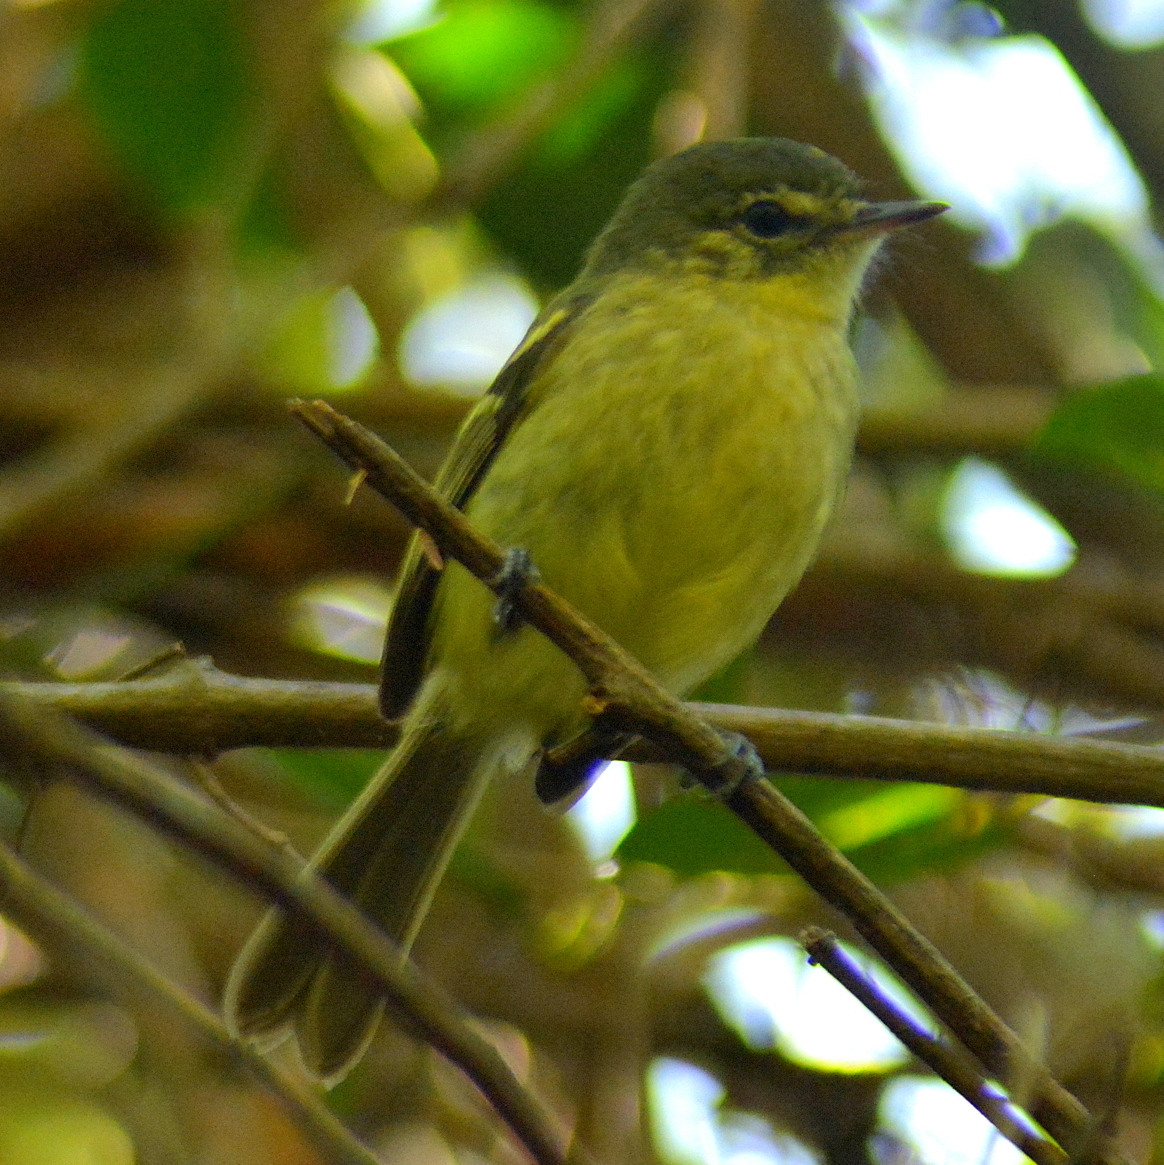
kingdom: Animalia
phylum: Chordata
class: Aves
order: Passeriformes
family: Tyrannidae
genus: Phylloscartes
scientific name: Phylloscartes kronei
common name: Restinga tyrannulet
